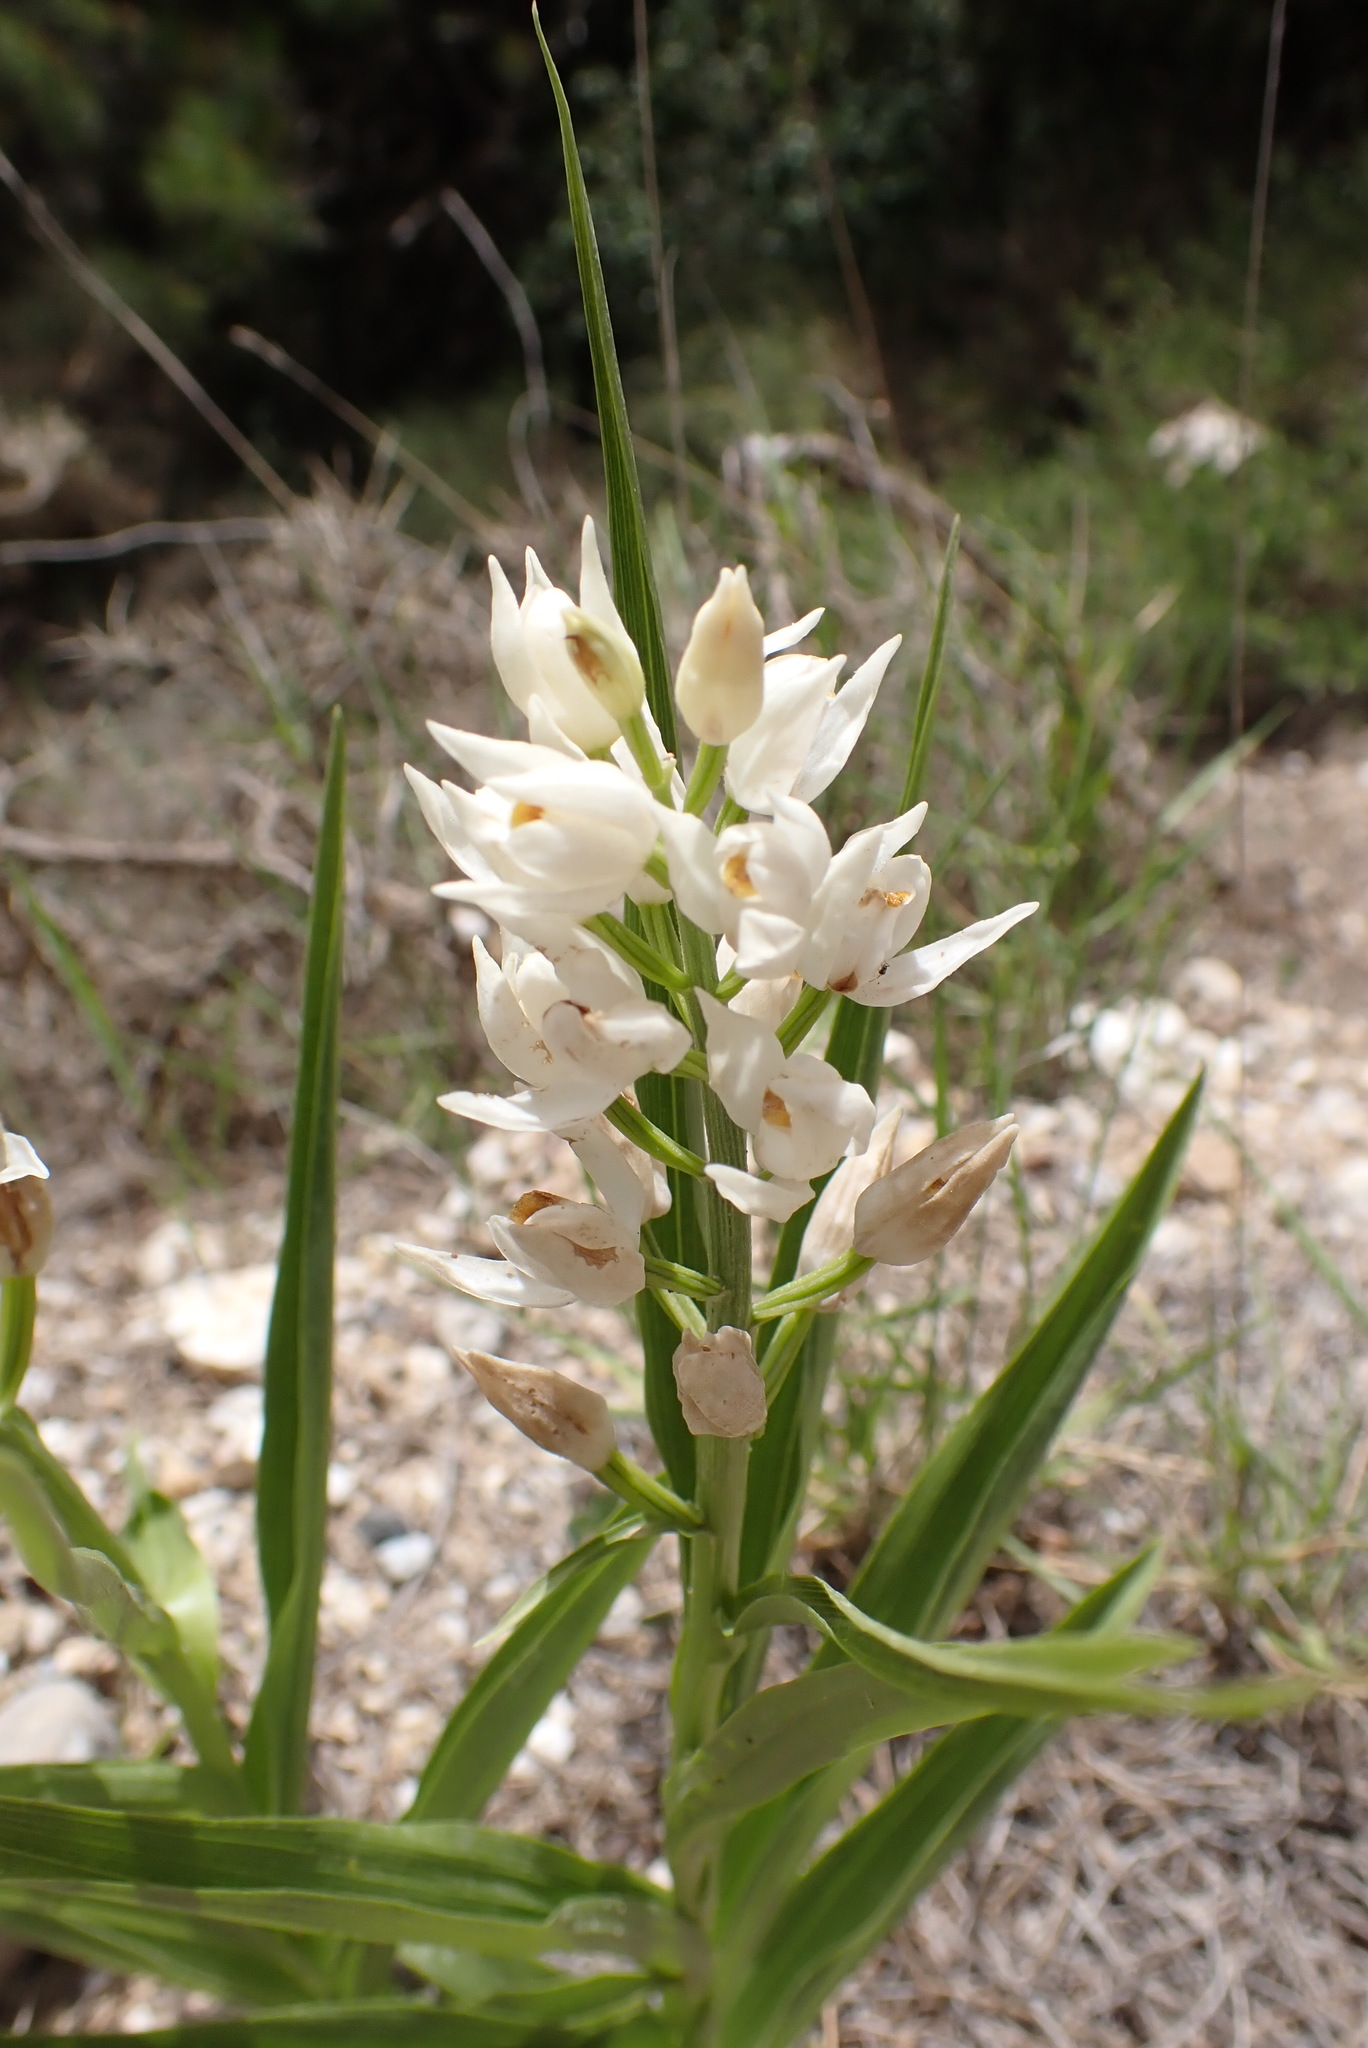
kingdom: Plantae
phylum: Tracheophyta
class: Liliopsida
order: Asparagales
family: Orchidaceae
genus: Cephalanthera
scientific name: Cephalanthera longifolia
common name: Narrow-leaved helleborine
